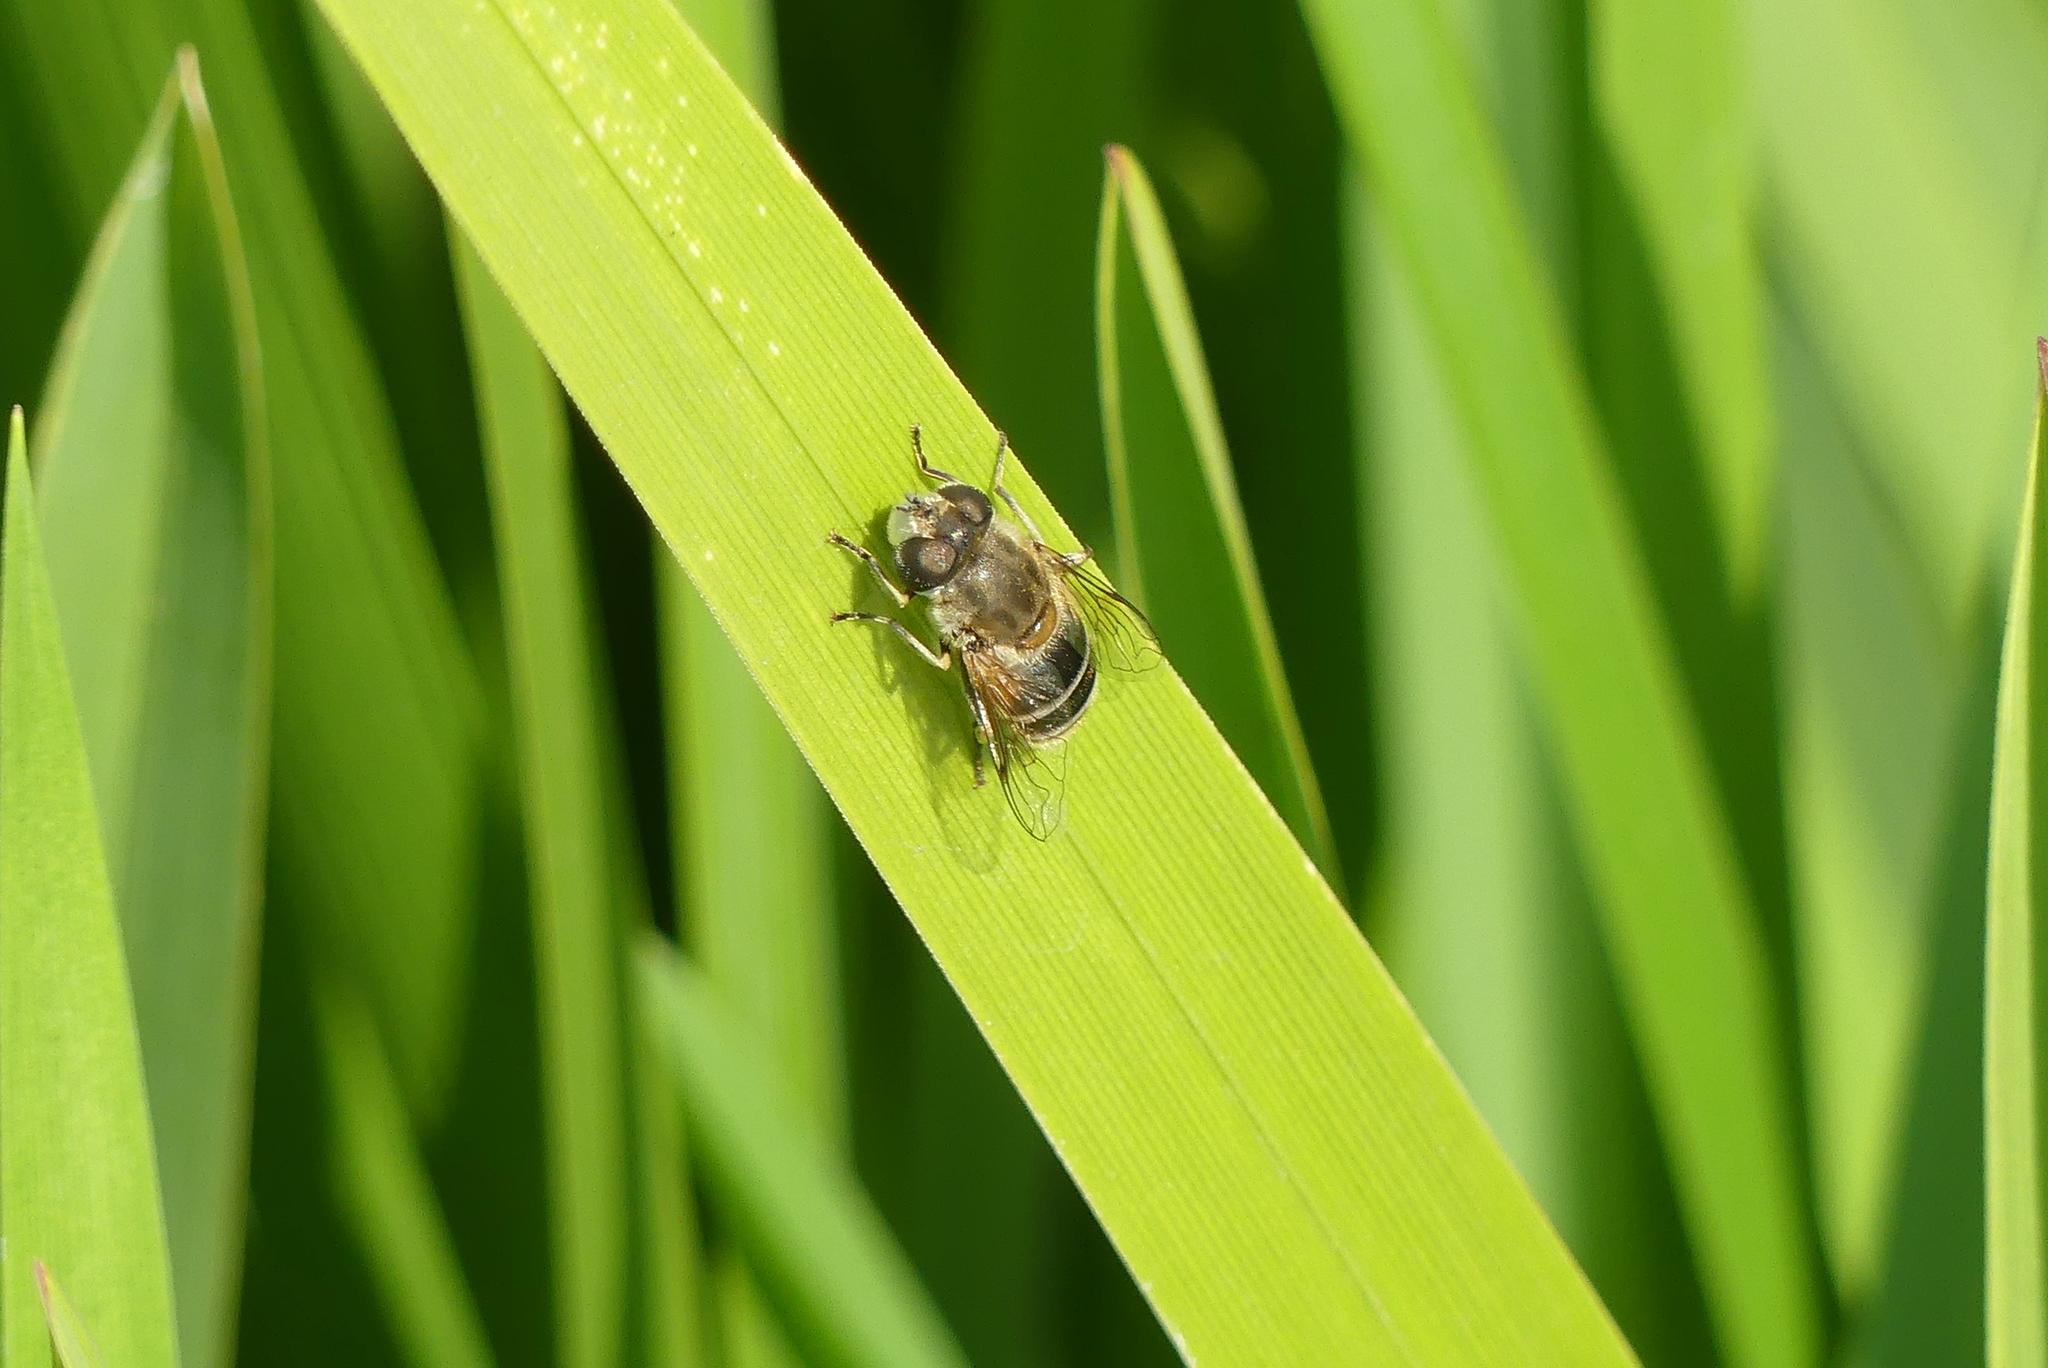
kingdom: Animalia
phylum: Arthropoda
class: Insecta
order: Diptera
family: Syrphidae
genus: Eristalis
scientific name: Eristalis arbustorum
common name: Hover fly
